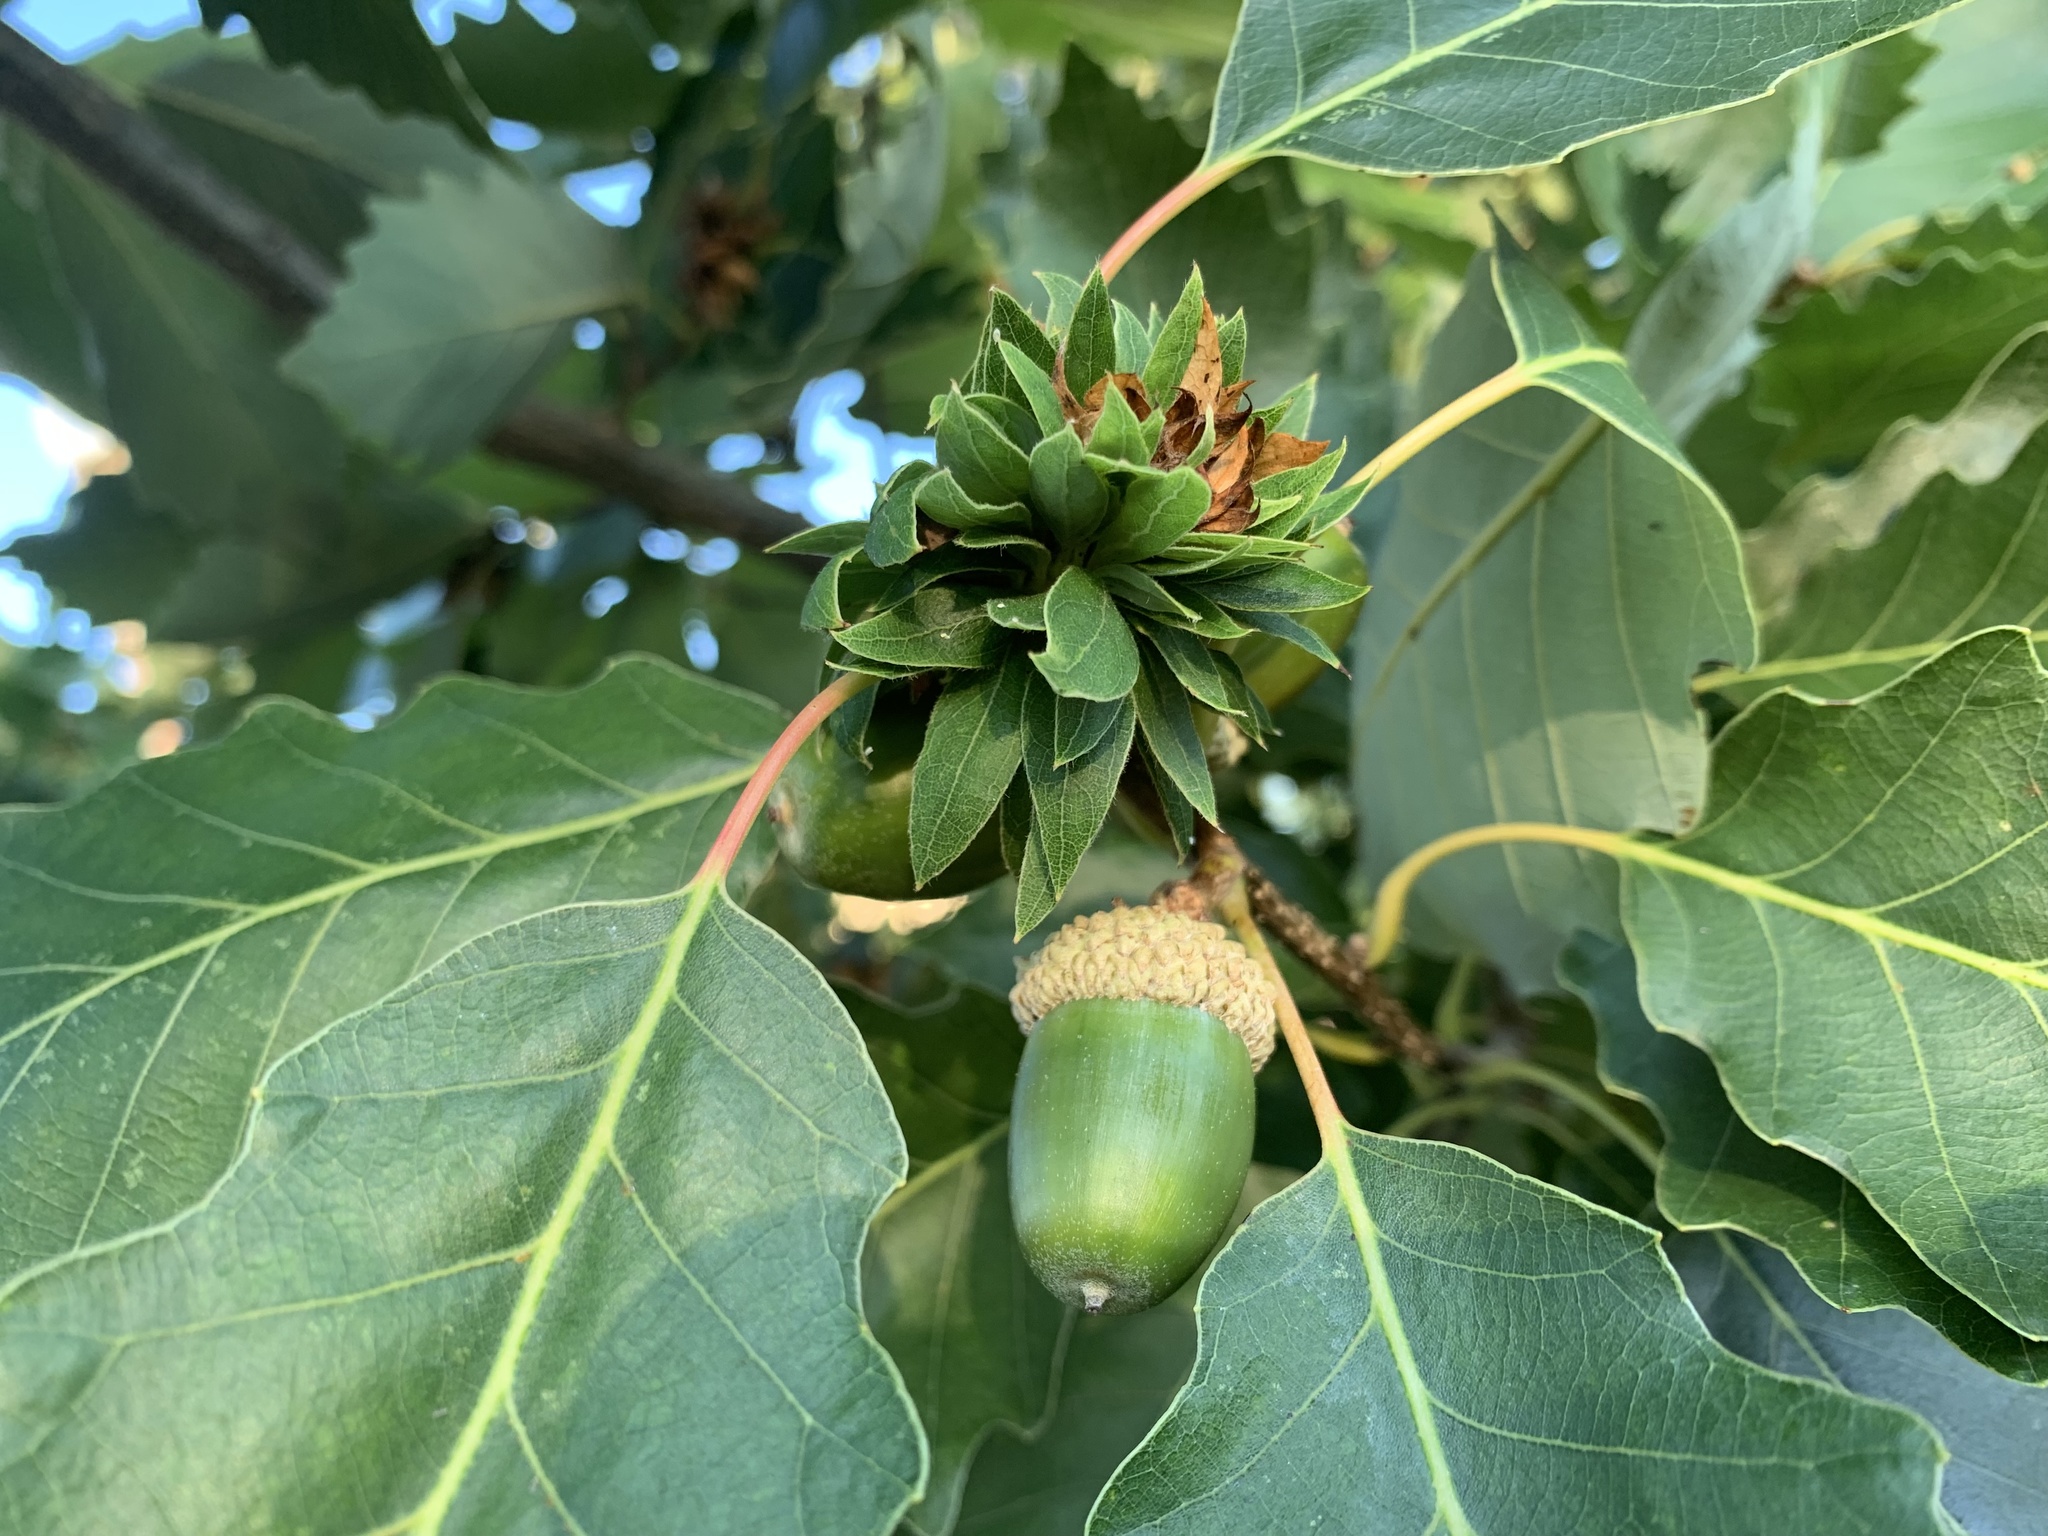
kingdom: Animalia
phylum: Arthropoda
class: Insecta
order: Hymenoptera
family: Cynipidae
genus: Andricus
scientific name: Andricus
